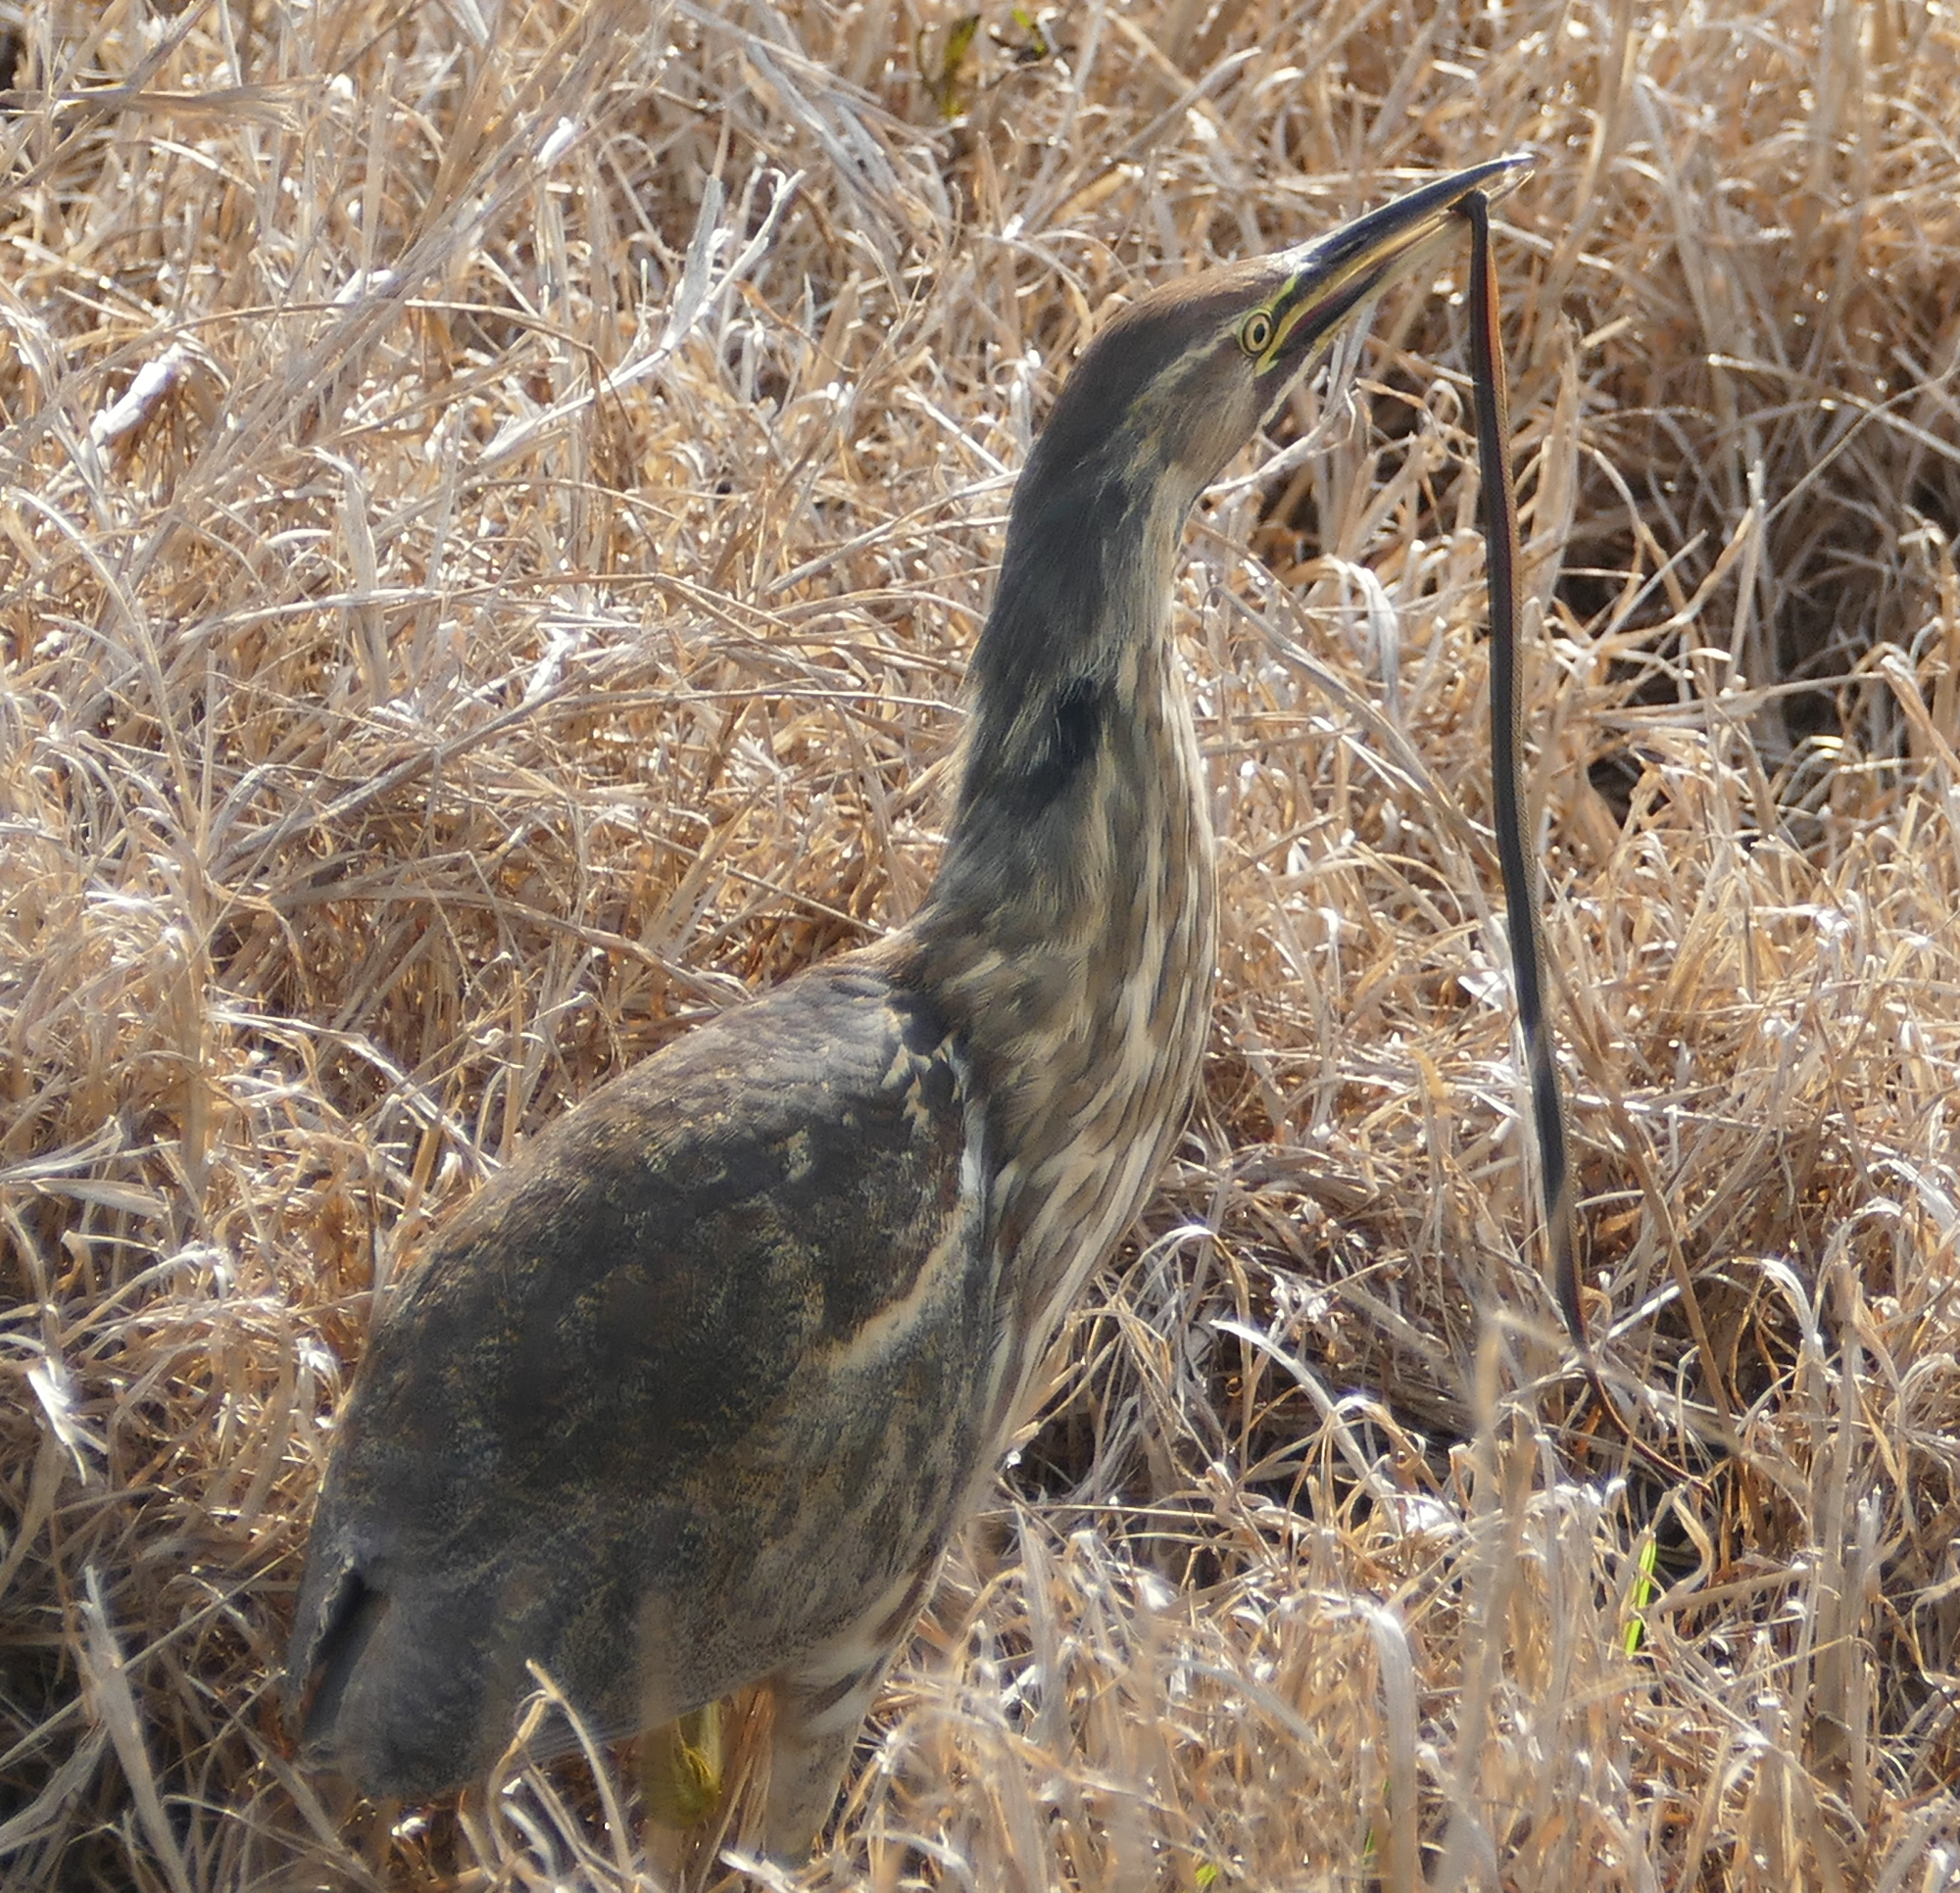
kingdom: Animalia
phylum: Chordata
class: Aves
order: Pelecaniformes
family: Ardeidae
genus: Botaurus
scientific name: Botaurus lentiginosus
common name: American bittern
